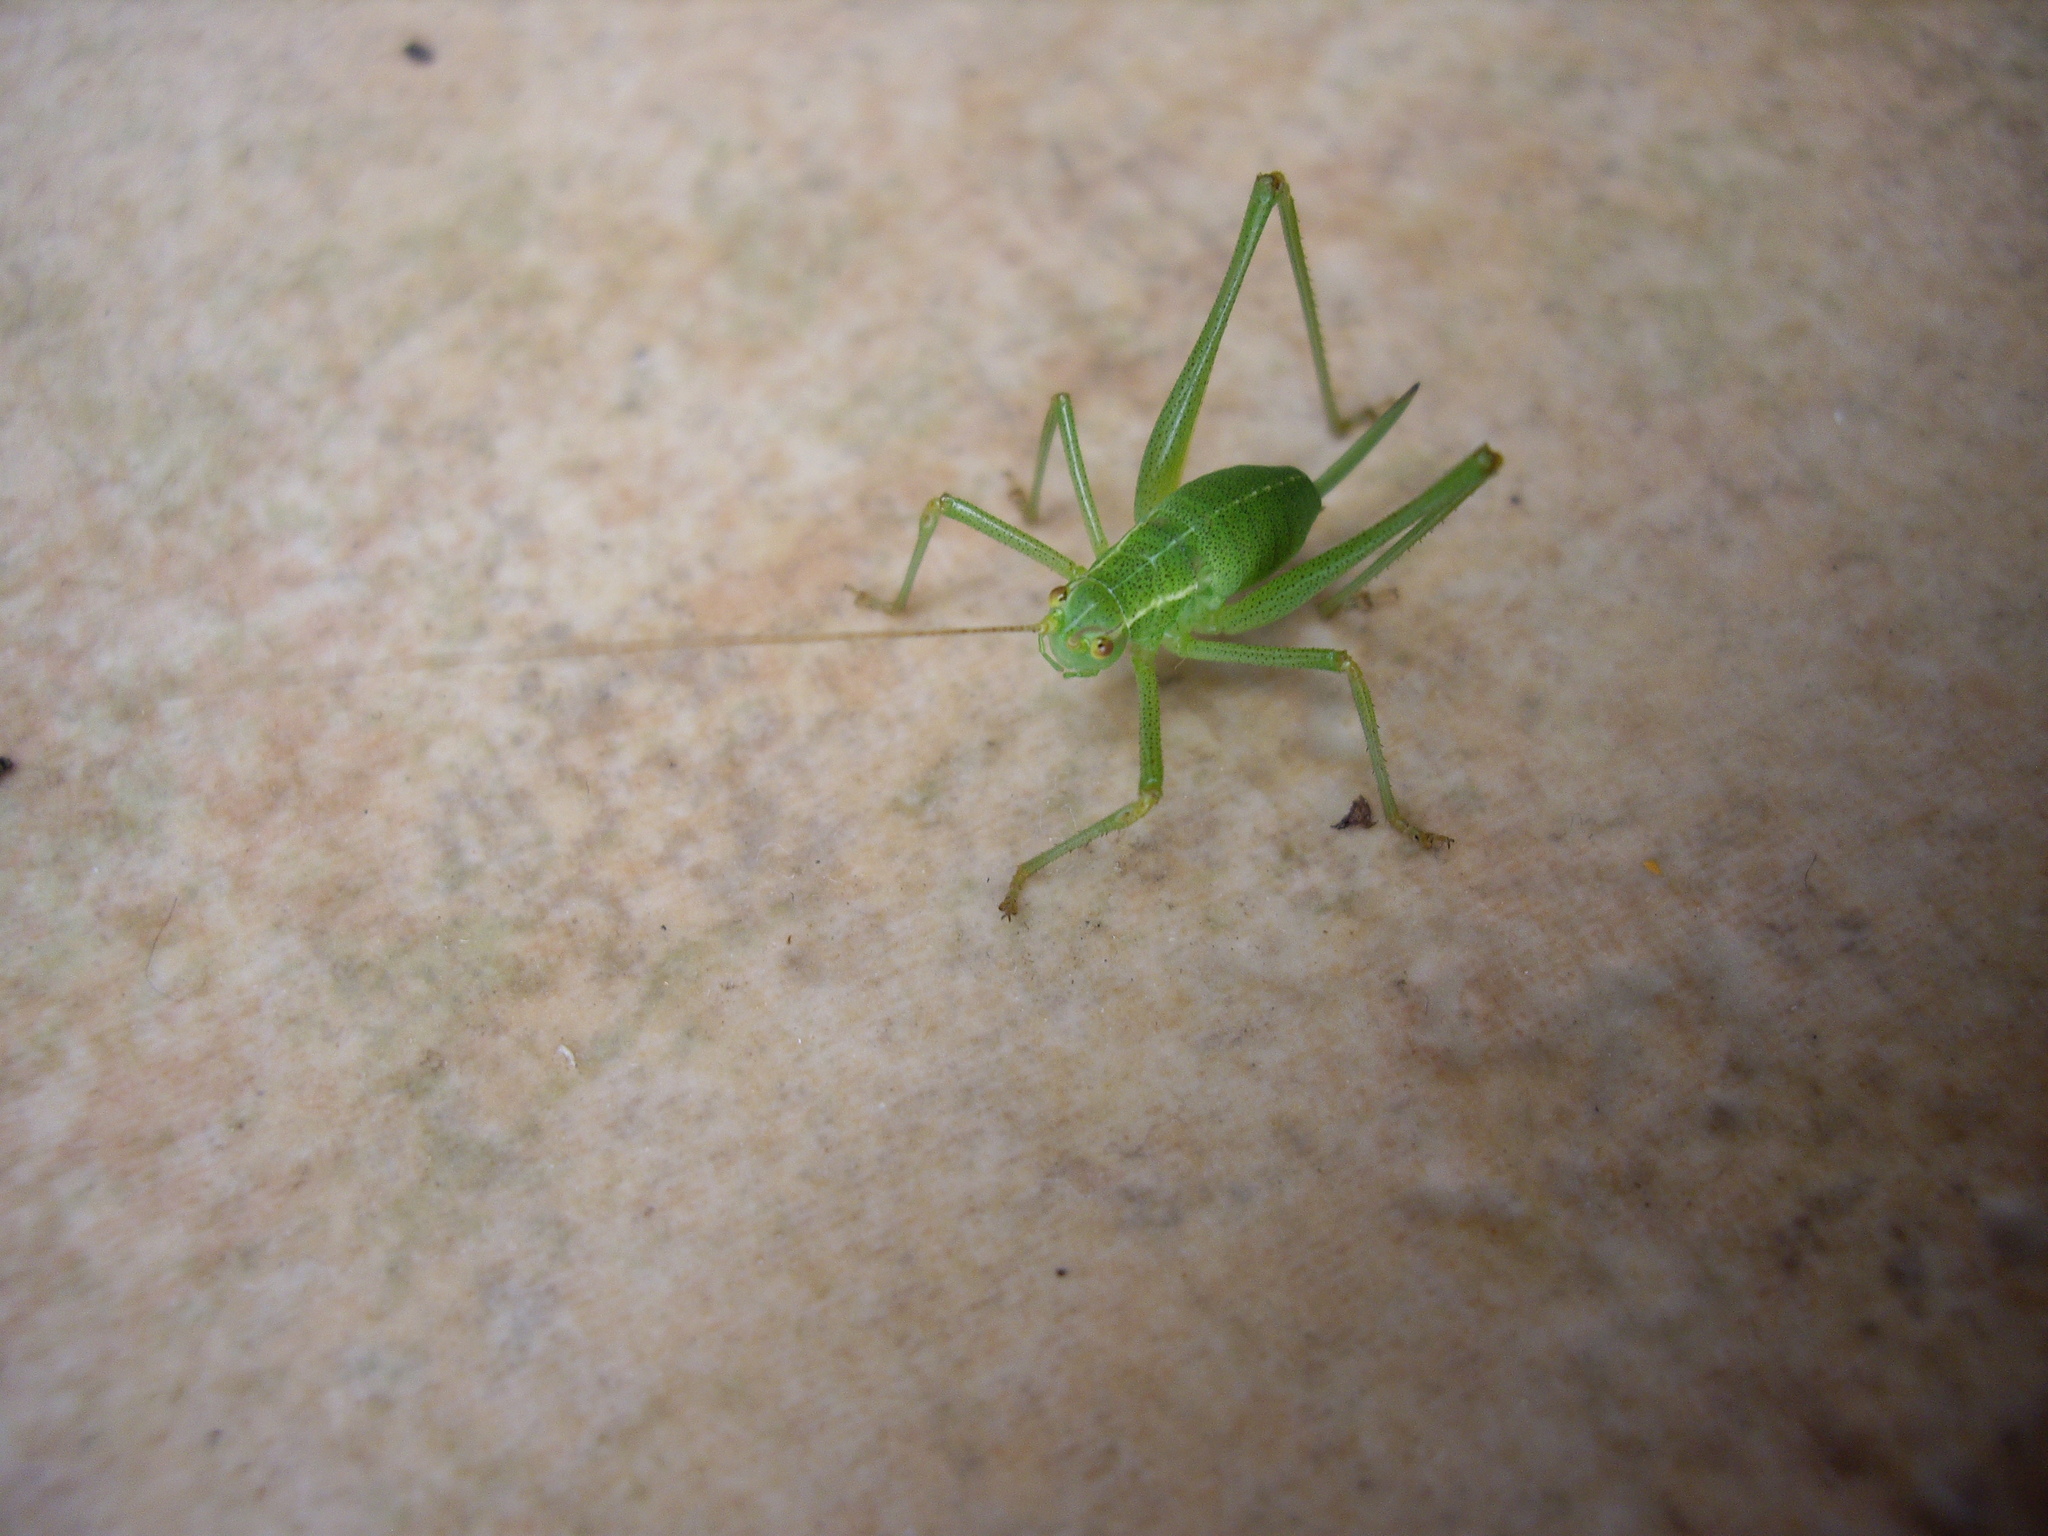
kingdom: Animalia
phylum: Arthropoda
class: Insecta
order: Orthoptera
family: Tettigoniidae
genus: Leptophyes
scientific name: Leptophyes punctatissima
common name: Speckled bush-cricket
